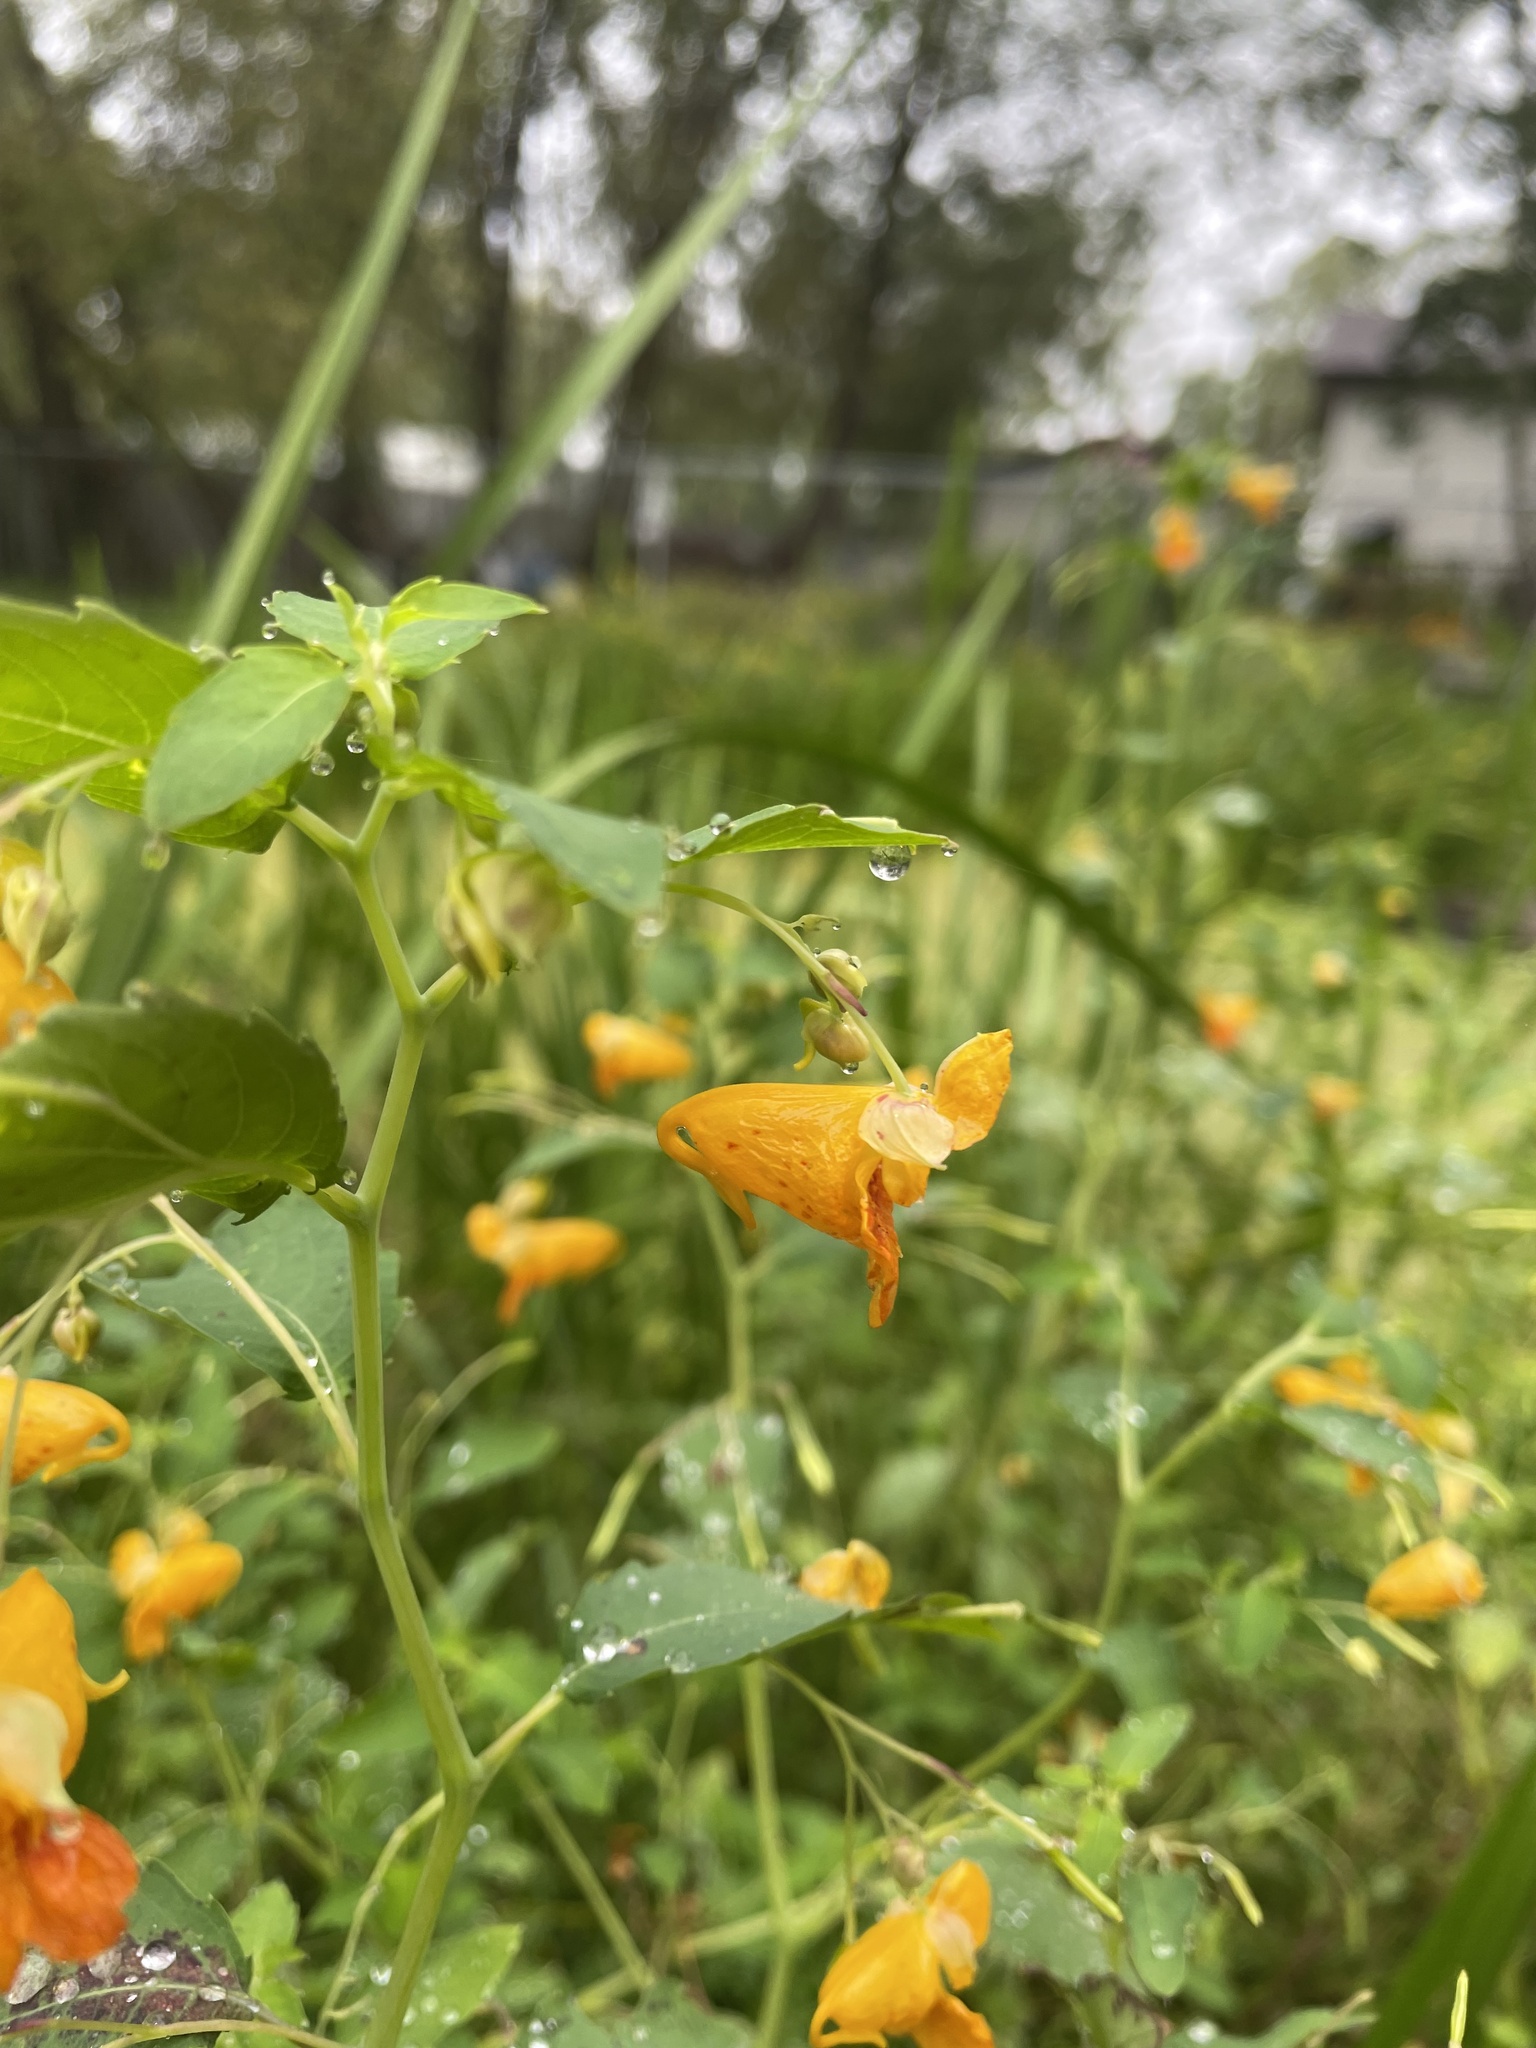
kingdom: Plantae
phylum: Tracheophyta
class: Magnoliopsida
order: Ericales
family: Balsaminaceae
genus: Impatiens
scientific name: Impatiens capensis
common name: Orange balsam
